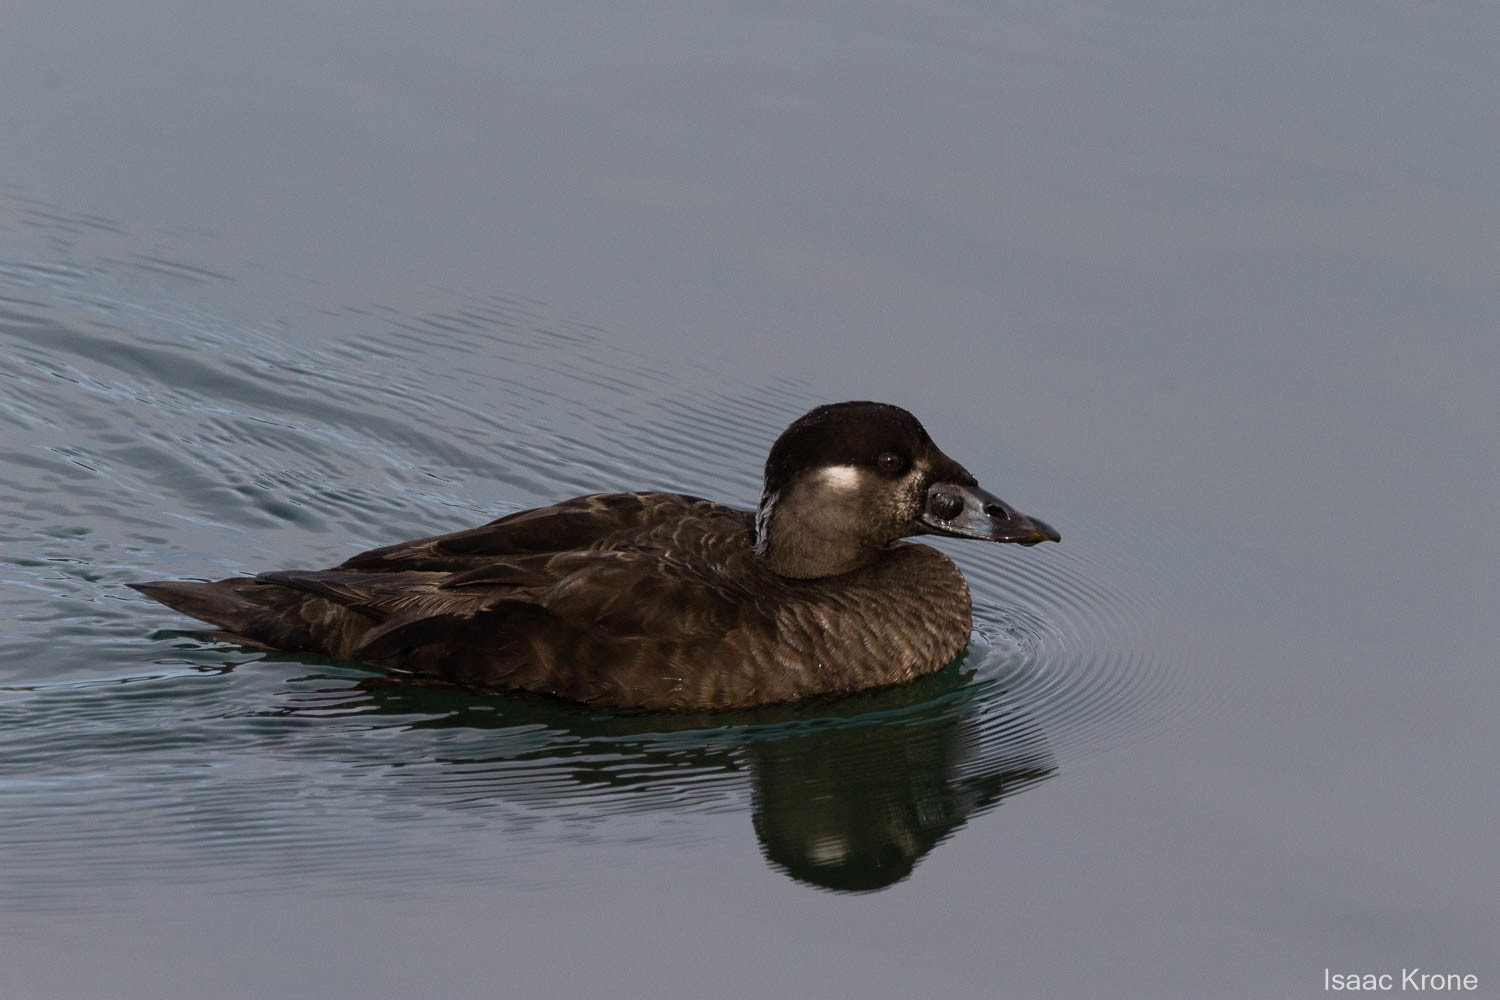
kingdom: Animalia
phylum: Chordata
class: Aves
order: Anseriformes
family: Anatidae
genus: Melanitta
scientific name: Melanitta perspicillata
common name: Surf scoter
